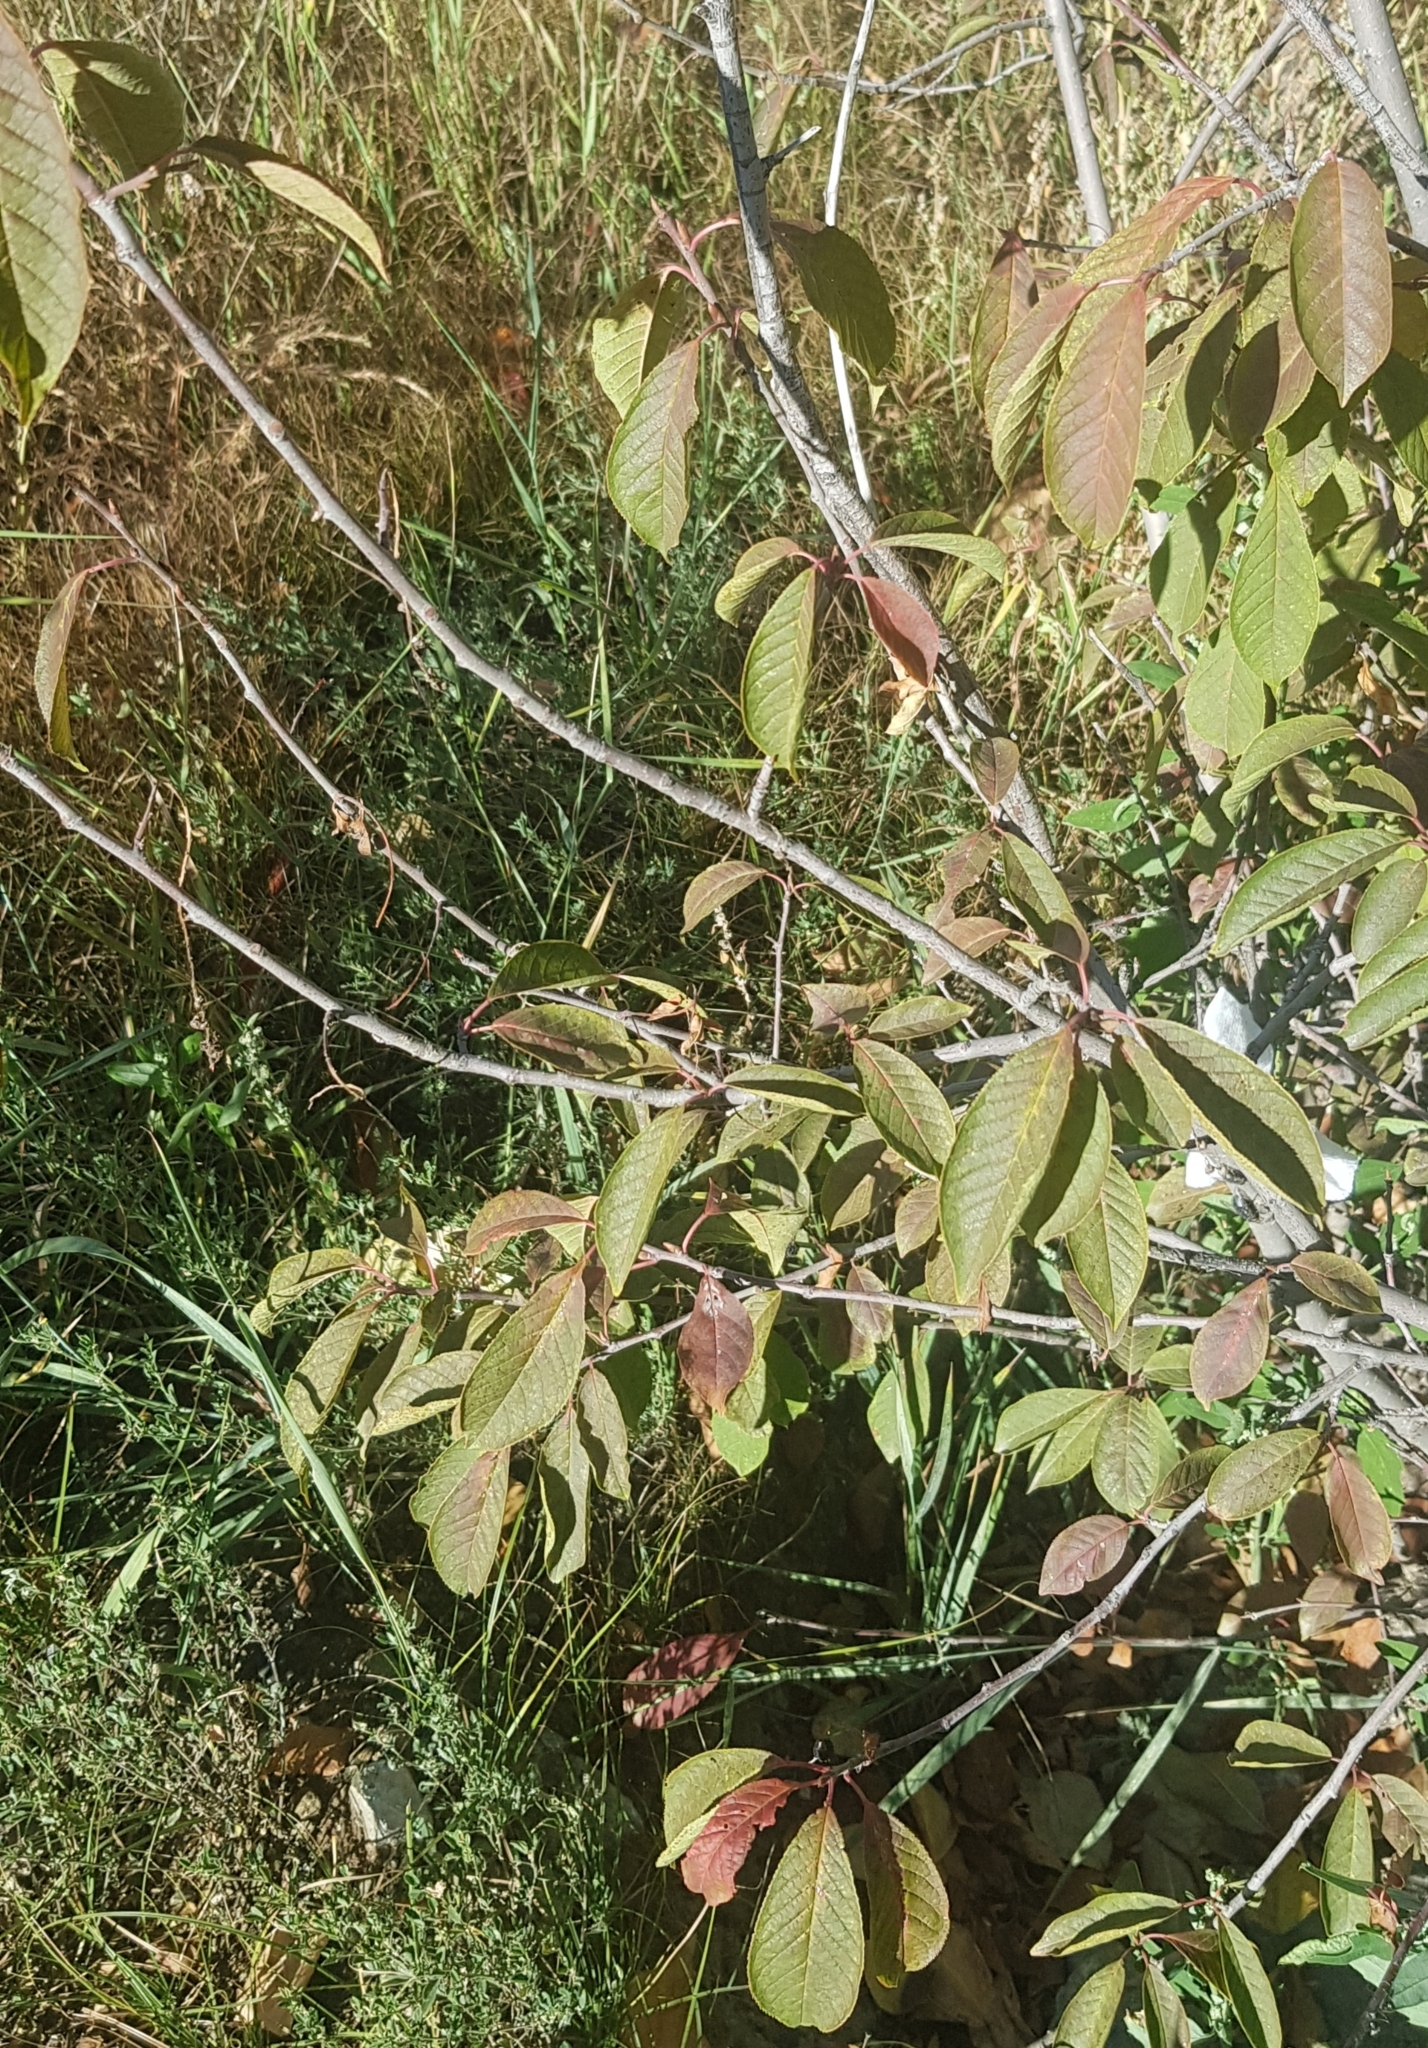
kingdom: Plantae
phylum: Tracheophyta
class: Magnoliopsida
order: Rosales
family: Rosaceae
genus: Prunus
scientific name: Prunus padus
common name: Bird cherry
